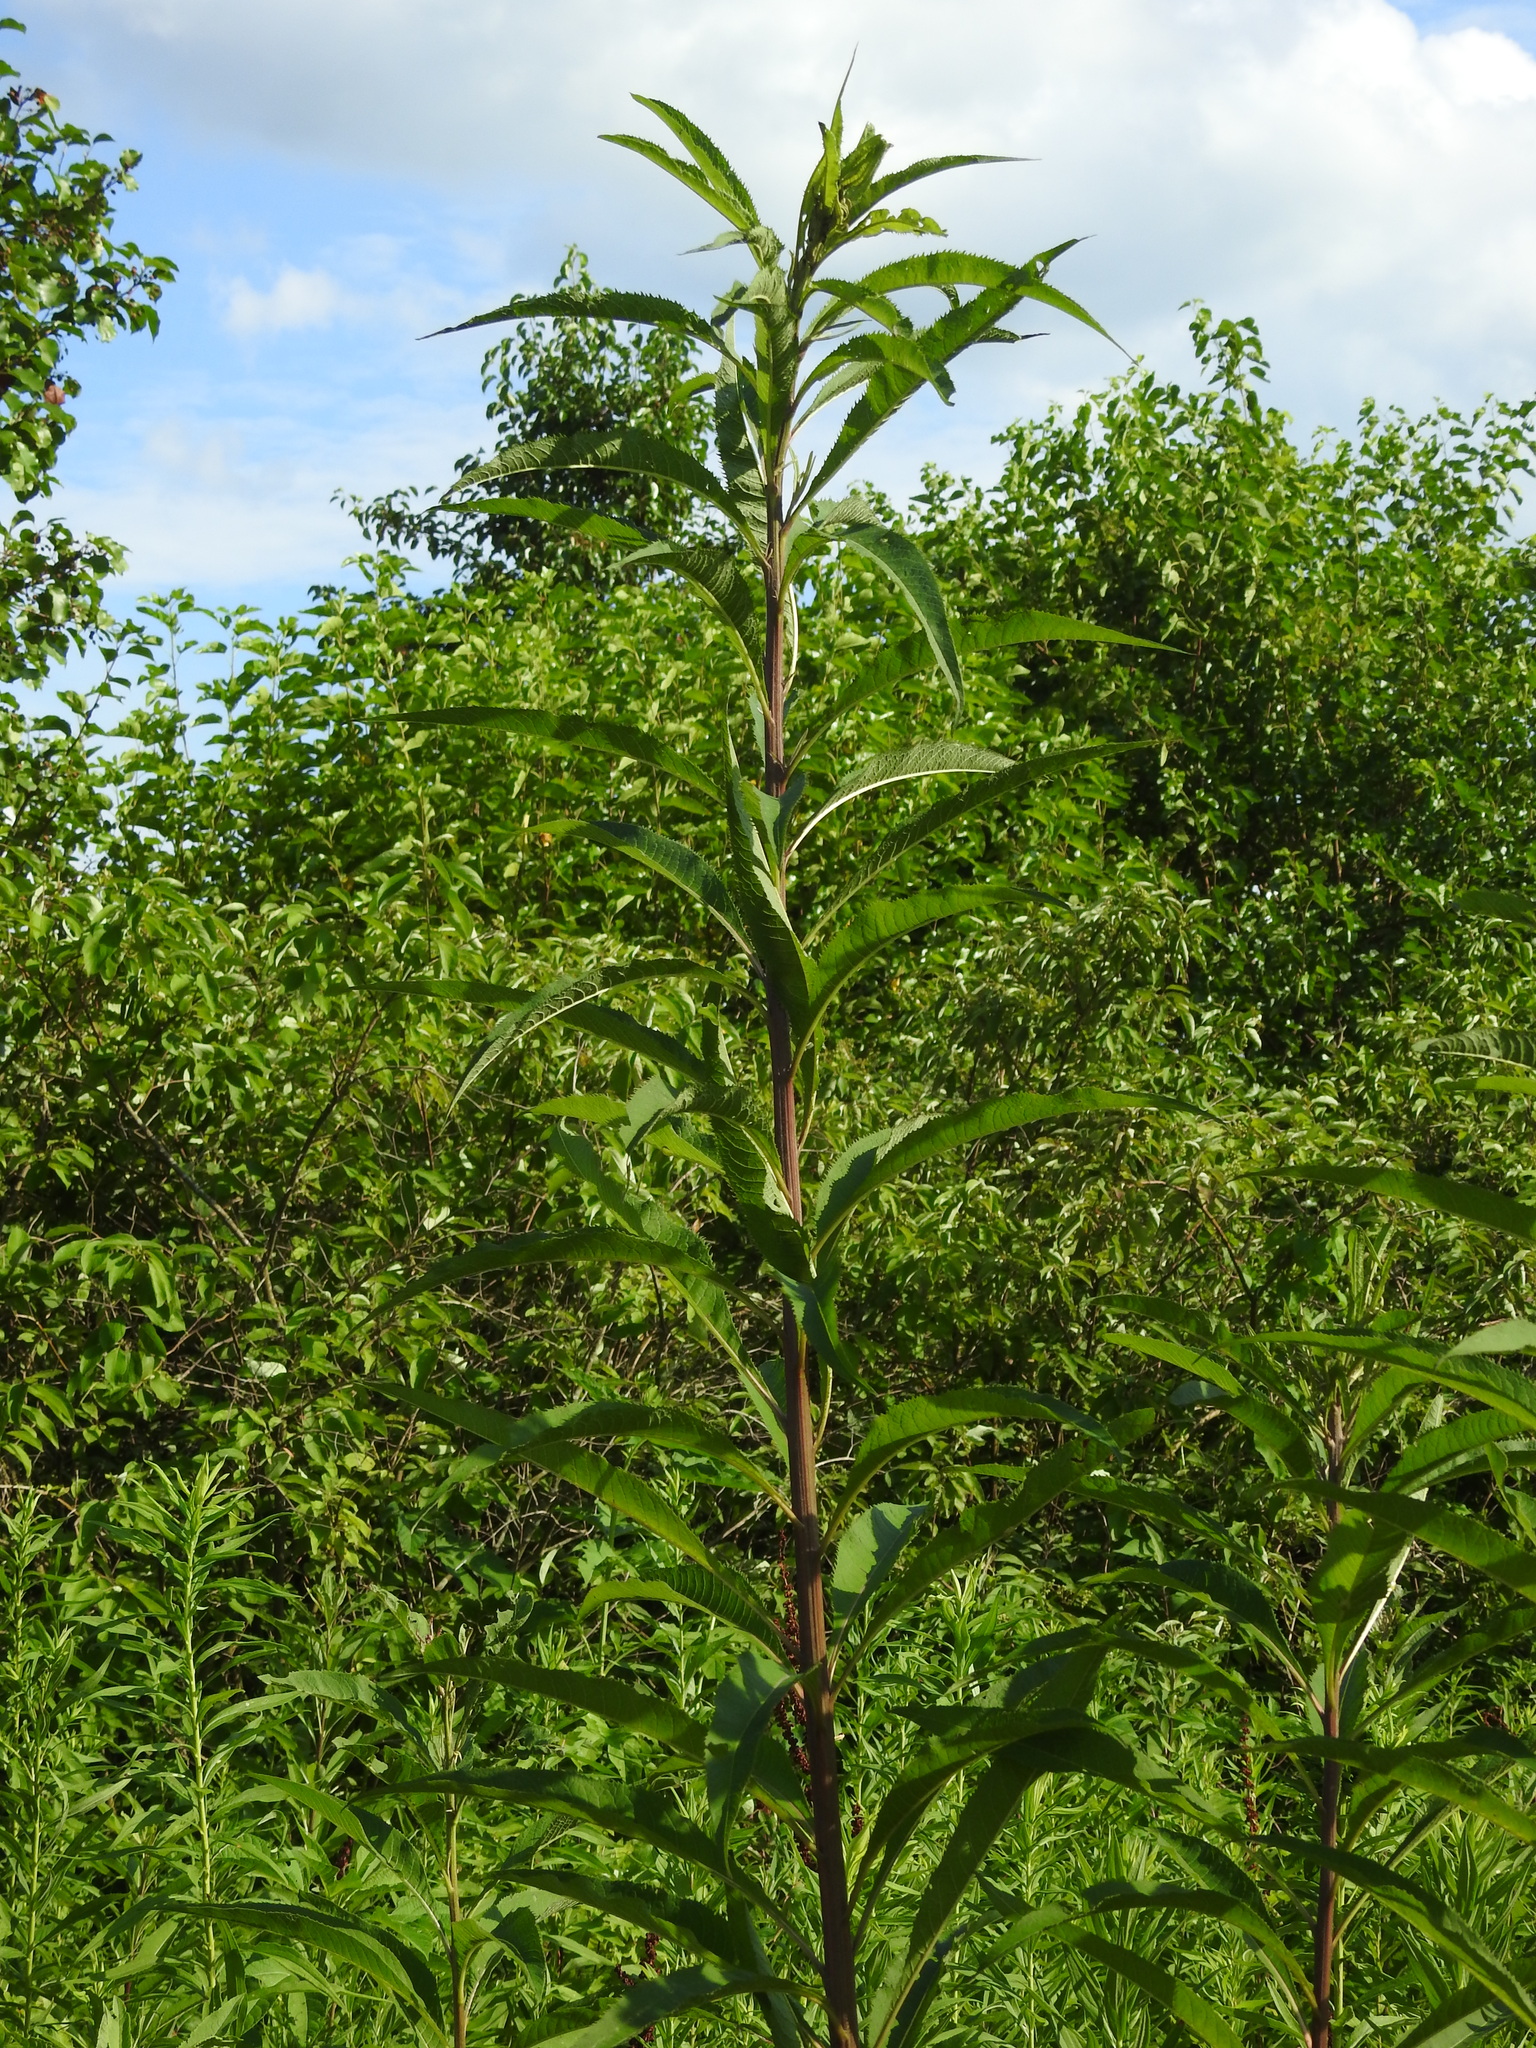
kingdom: Plantae
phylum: Tracheophyta
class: Magnoliopsida
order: Asterales
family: Asteraceae
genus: Vernonia
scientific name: Vernonia gigantea
